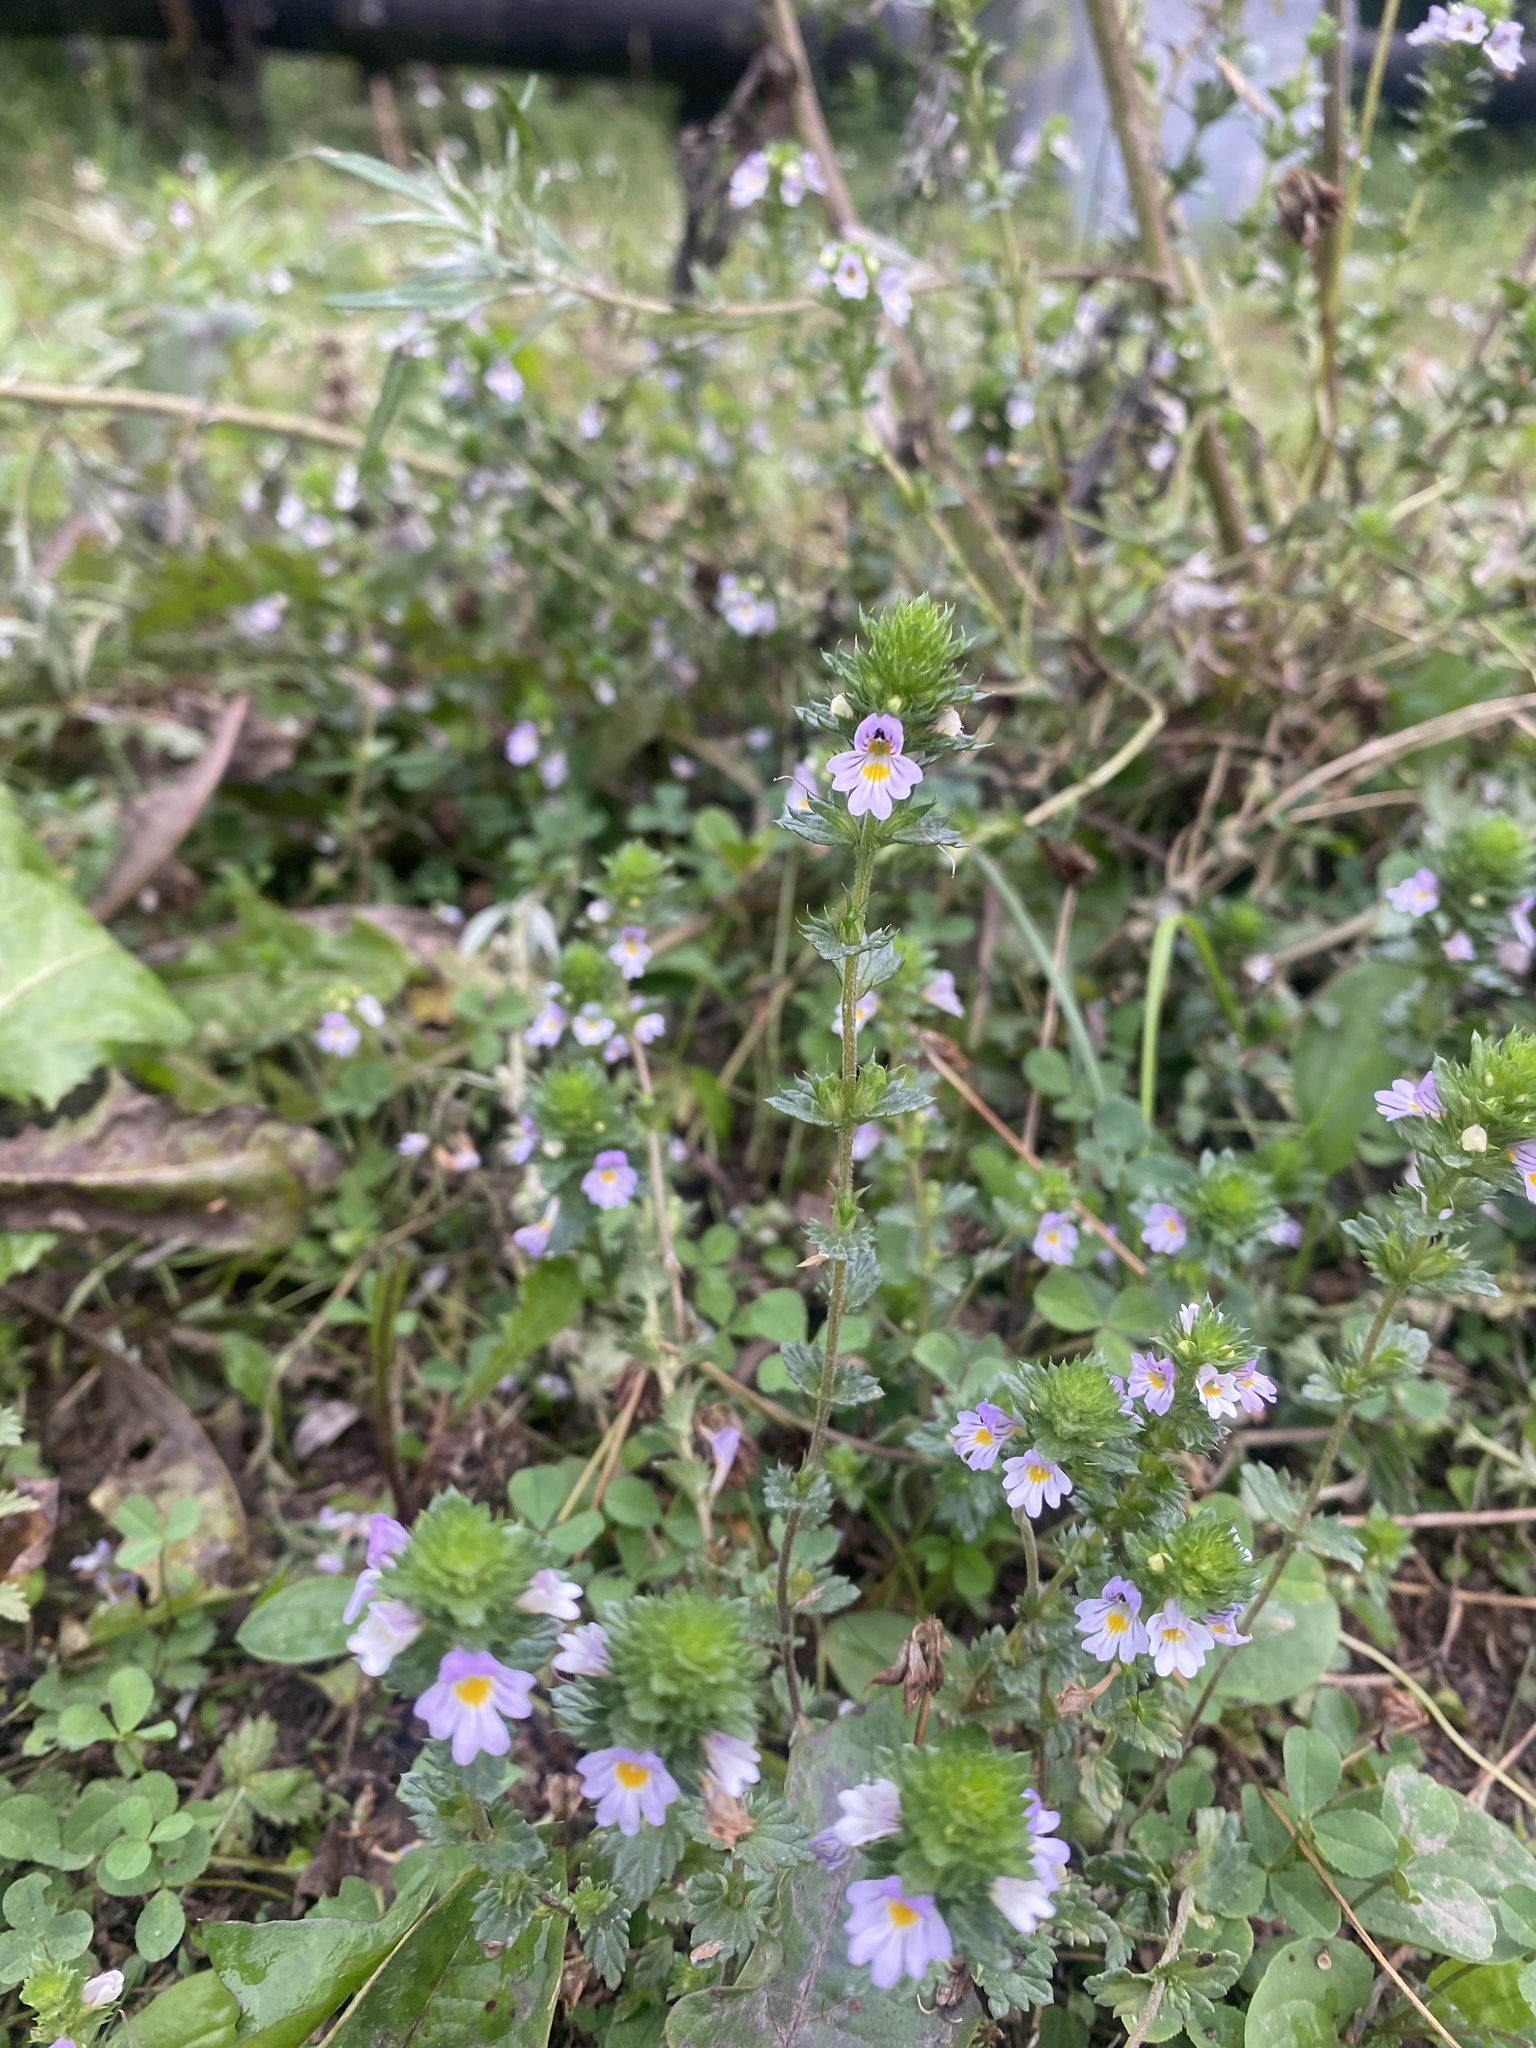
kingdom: Plantae
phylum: Tracheophyta
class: Magnoliopsida
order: Lamiales
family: Orobanchaceae
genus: Euphrasia
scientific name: Euphrasia maximowiczii
